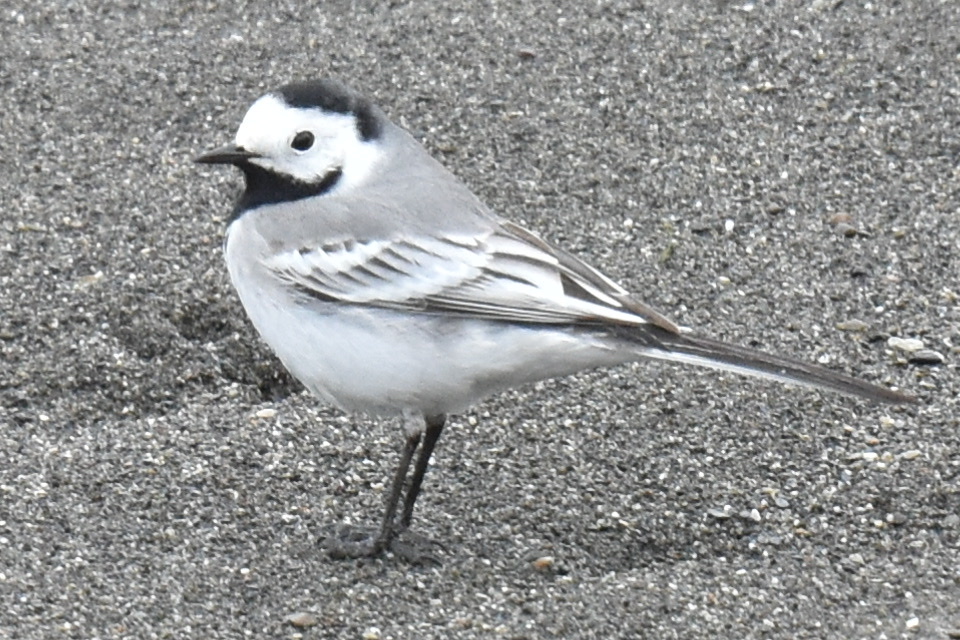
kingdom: Animalia
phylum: Chordata
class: Aves
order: Passeriformes
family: Motacillidae
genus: Motacilla
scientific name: Motacilla alba
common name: White wagtail
